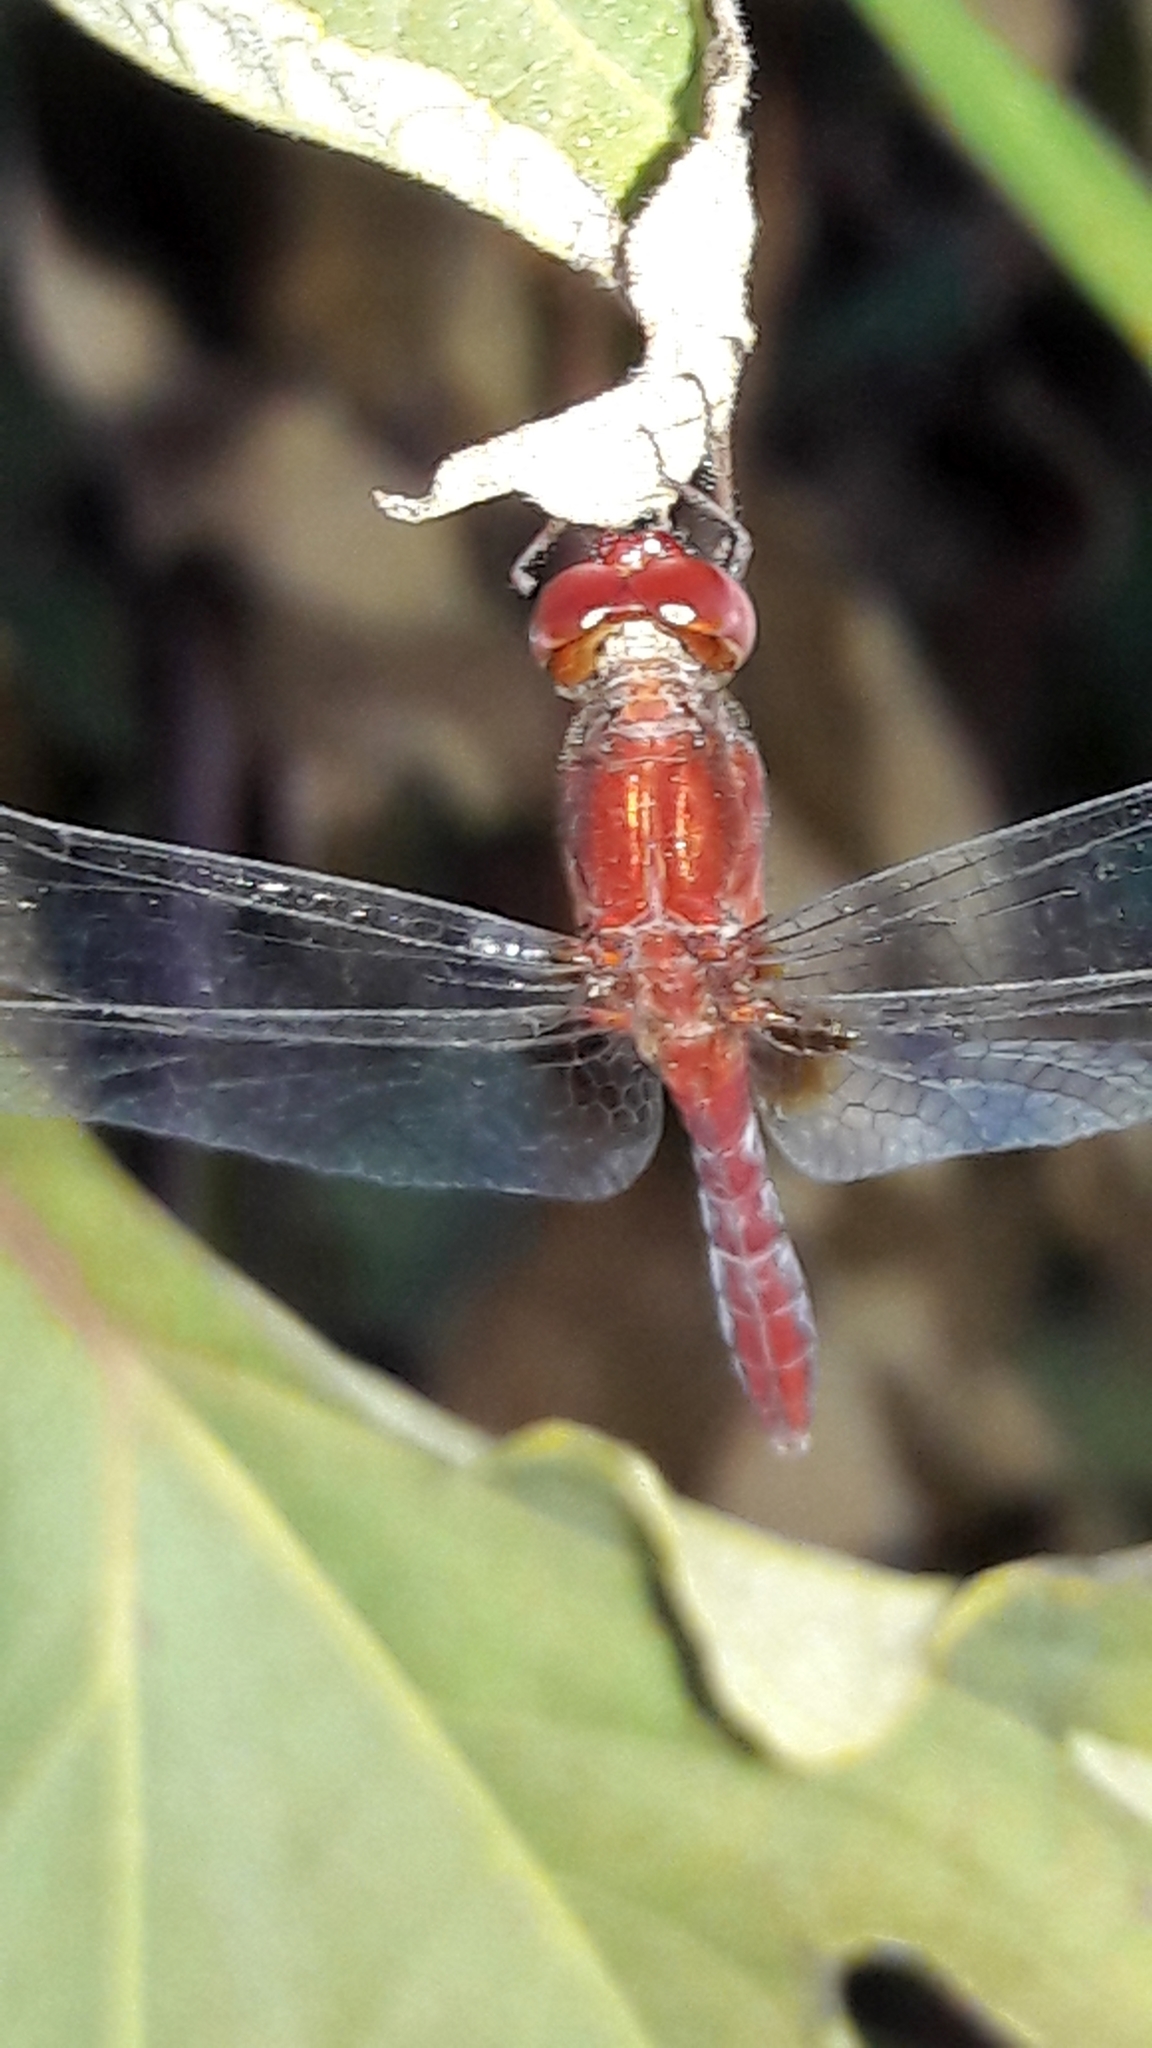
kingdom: Animalia
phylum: Arthropoda
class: Insecta
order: Odonata
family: Libellulidae
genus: Erythrodiplax
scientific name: Erythrodiplax fusca
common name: Red-faced dragonlet
